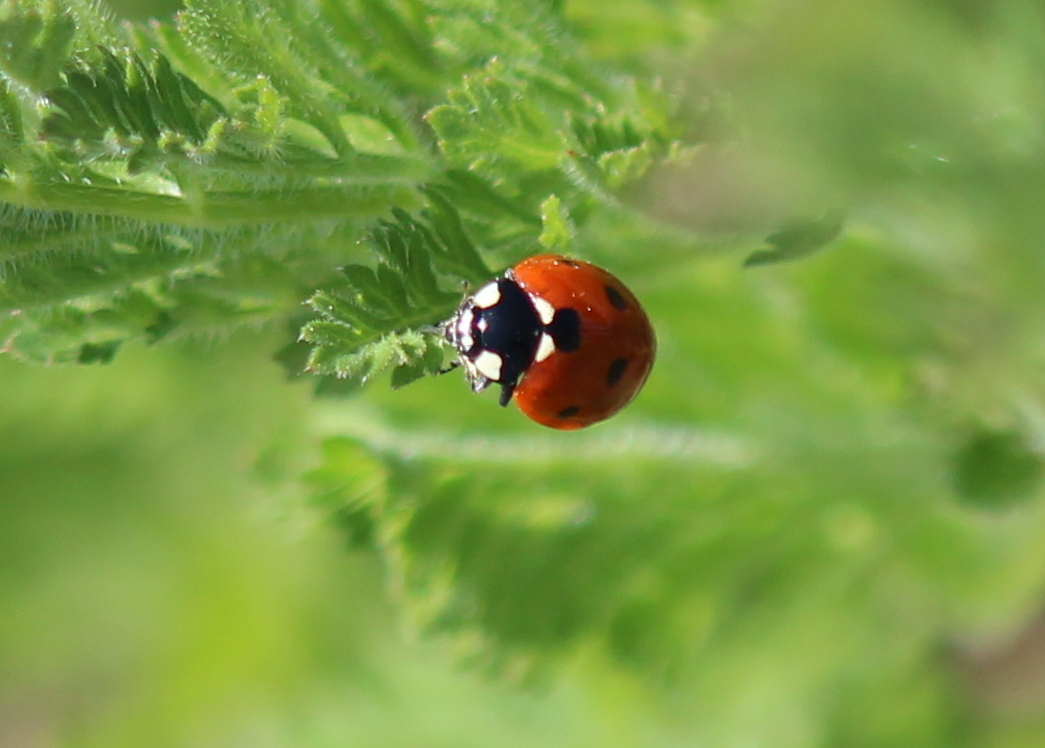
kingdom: Animalia
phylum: Arthropoda
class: Insecta
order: Coleoptera
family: Coccinellidae
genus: Coccinella
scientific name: Coccinella septempunctata
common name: Sevenspotted lady beetle
